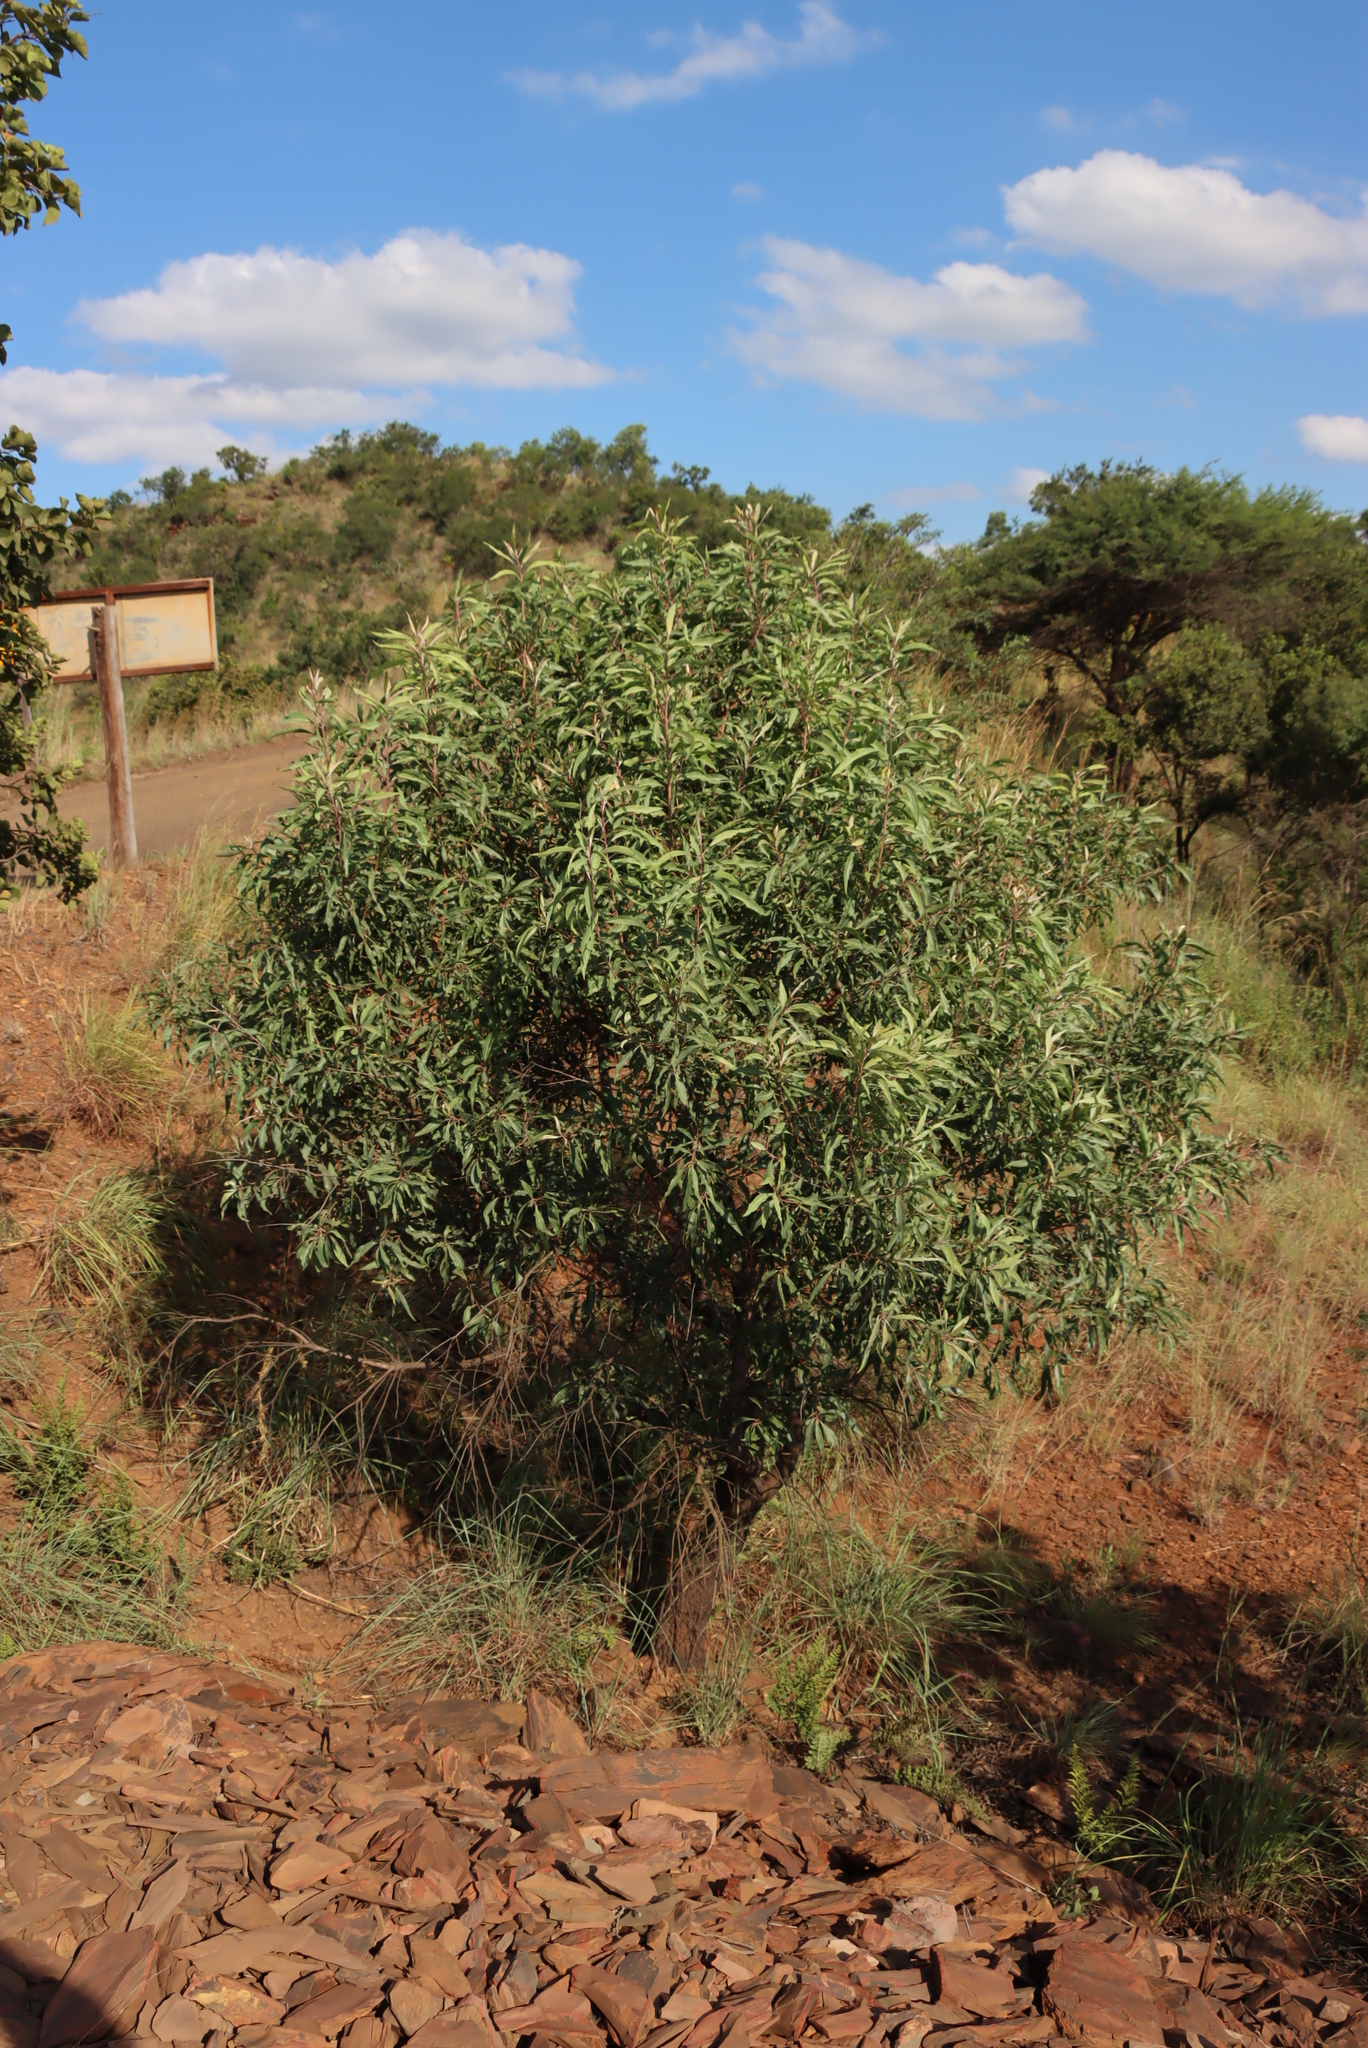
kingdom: Plantae
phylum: Tracheophyta
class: Magnoliopsida
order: Proteales
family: Proteaceae
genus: Faurea
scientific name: Faurea saligna
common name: African bean
